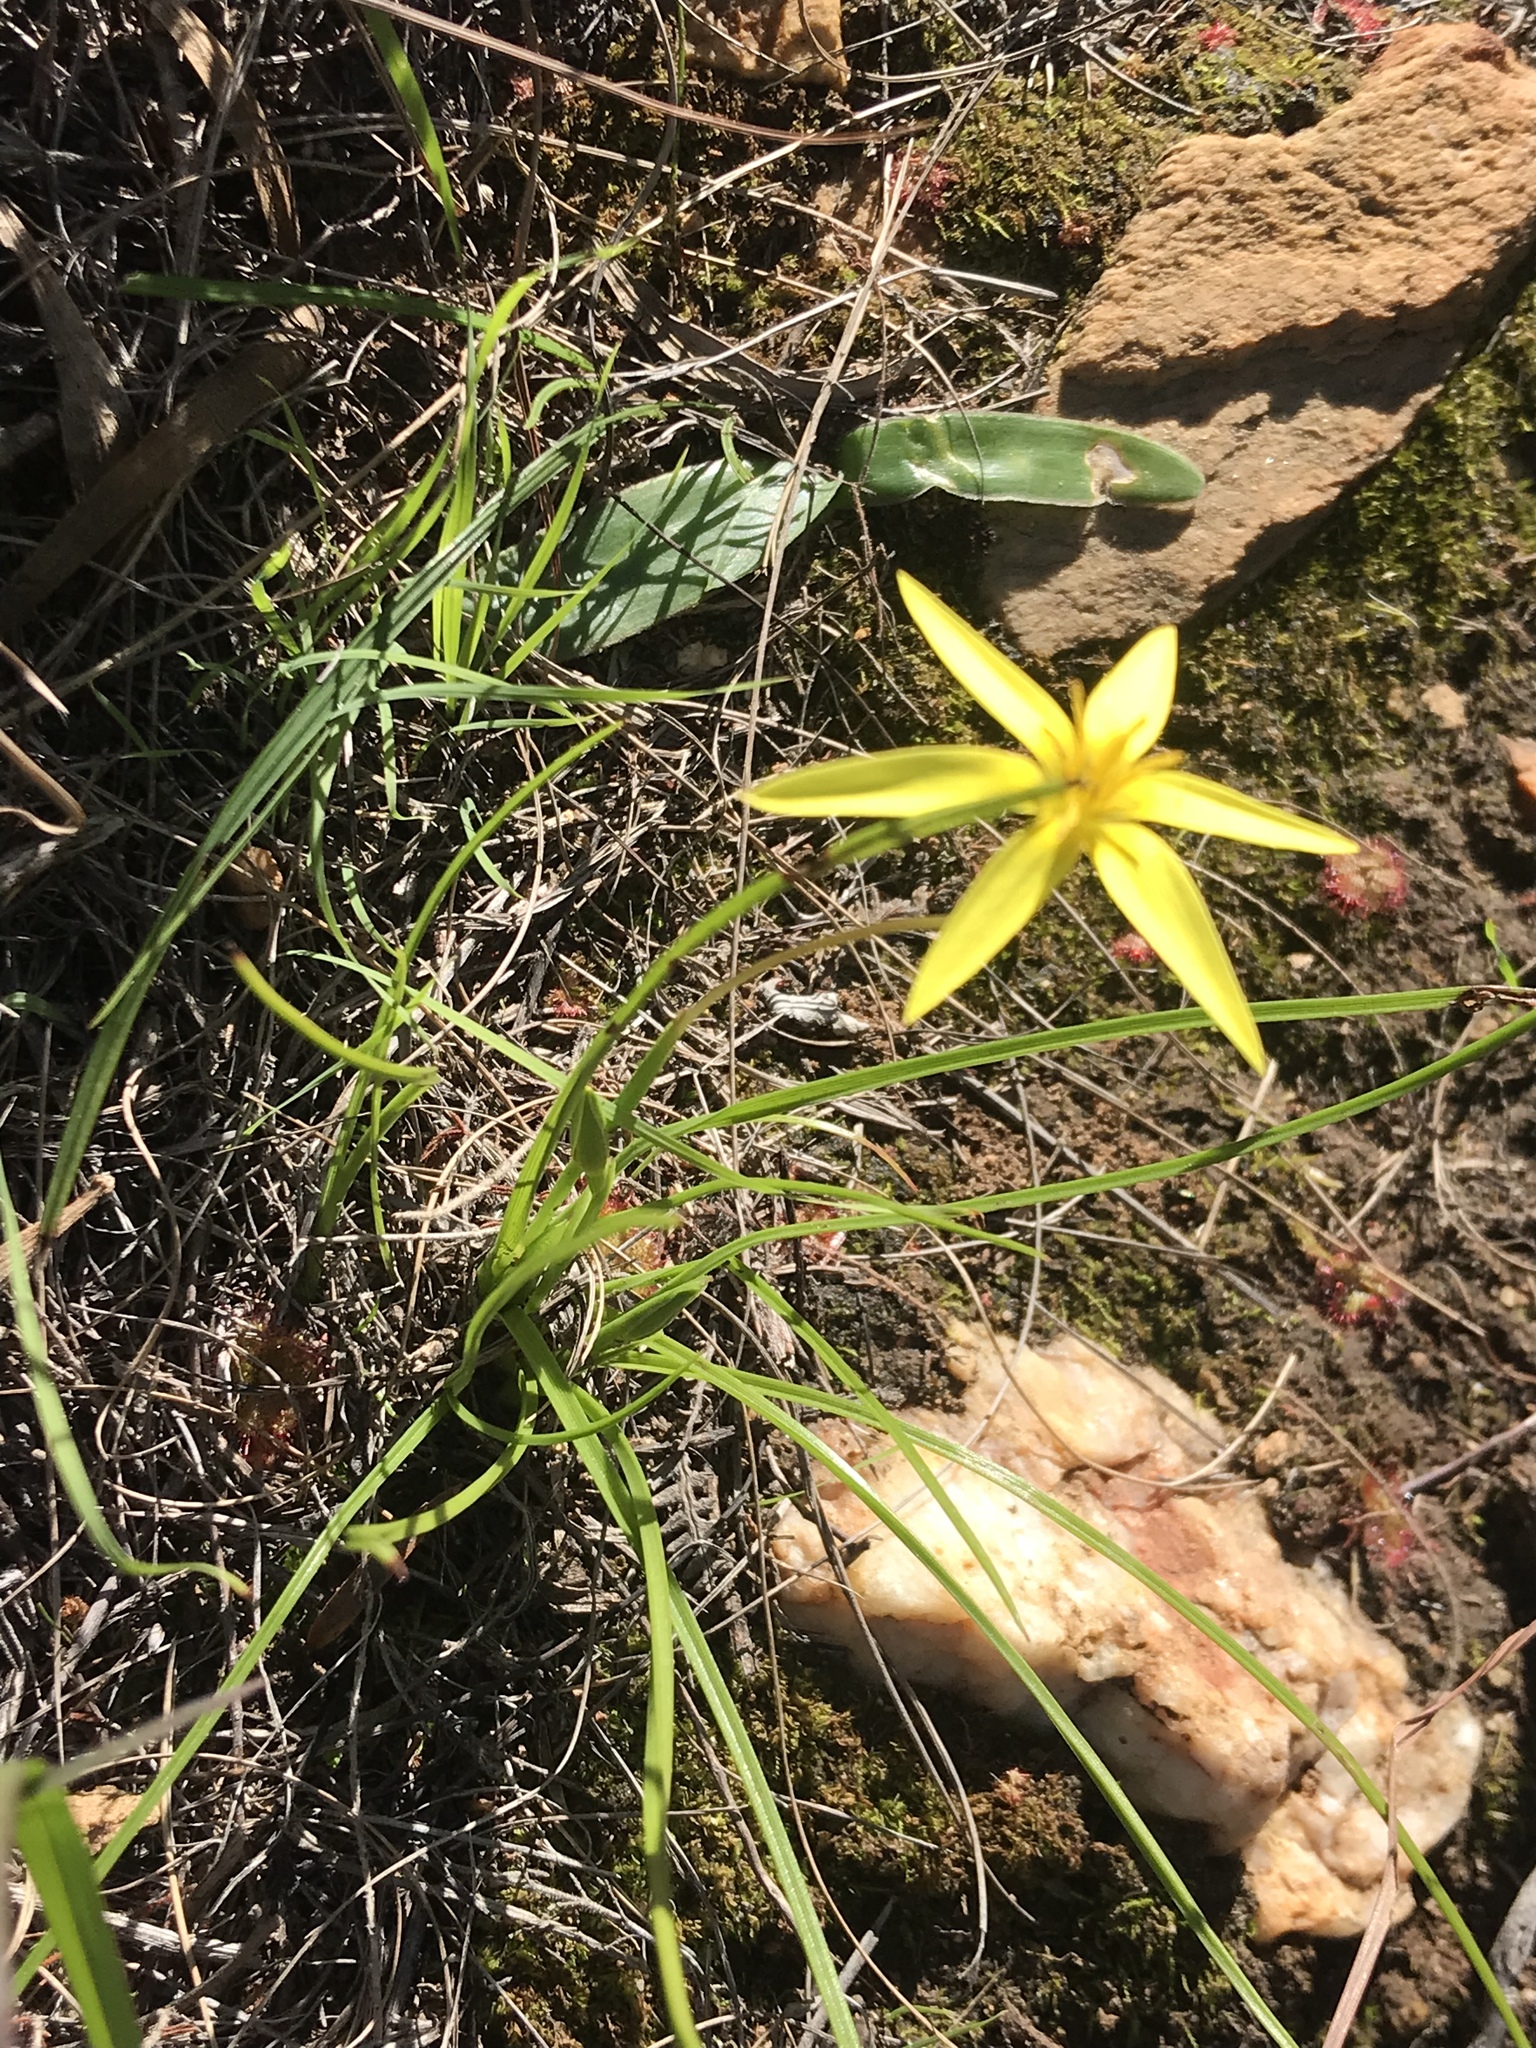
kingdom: Plantae
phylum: Tracheophyta
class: Liliopsida
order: Asparagales
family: Hypoxidaceae
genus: Empodium
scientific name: Empodium plicatum
